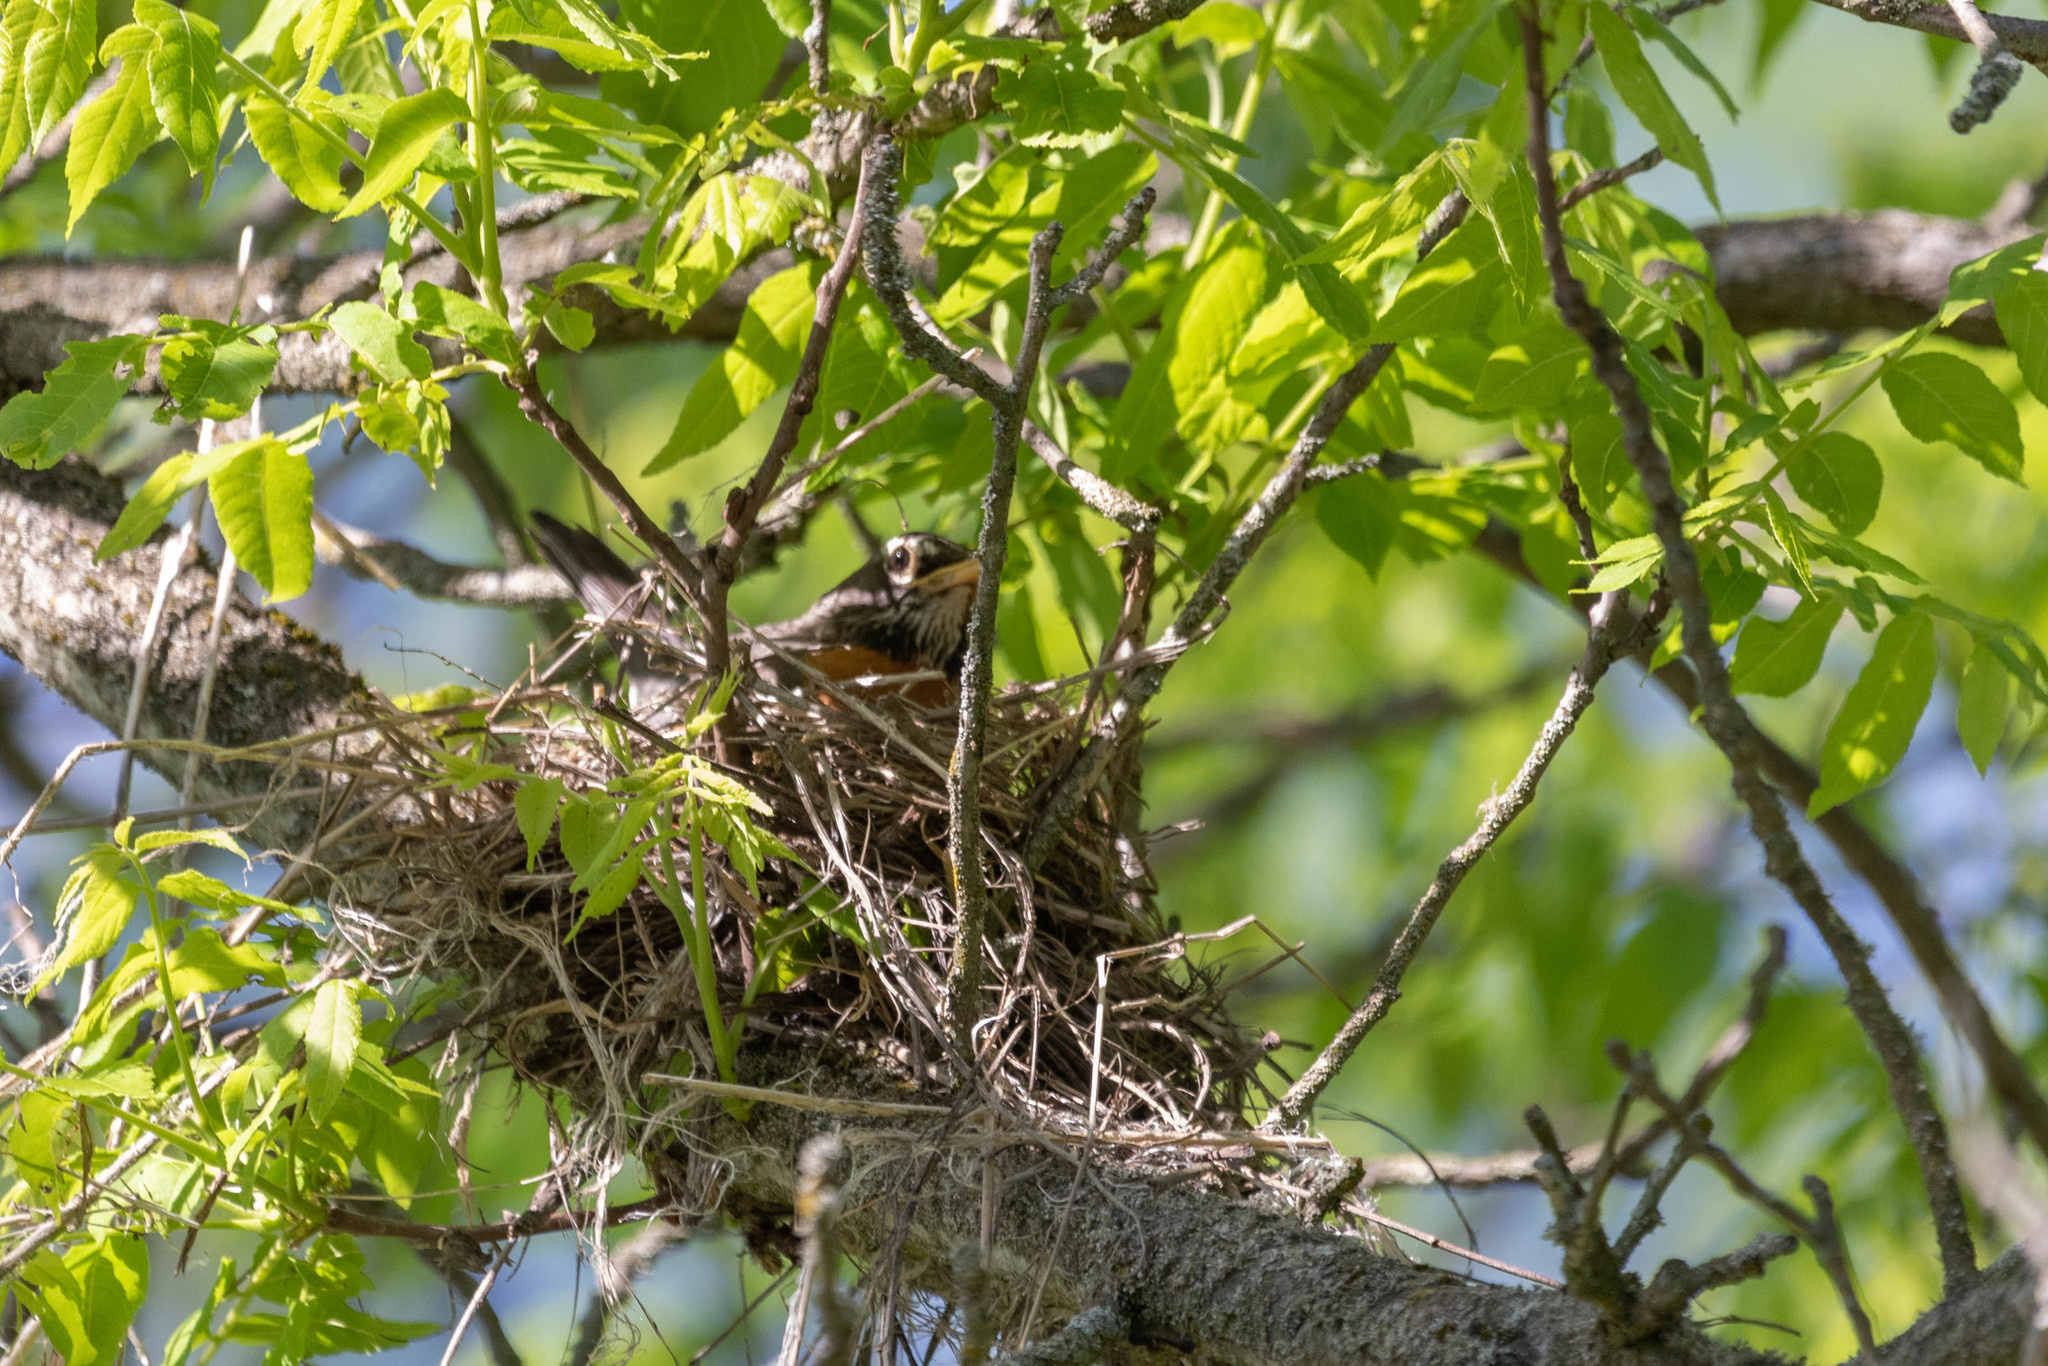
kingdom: Animalia
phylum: Chordata
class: Aves
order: Passeriformes
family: Turdidae
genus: Turdus
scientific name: Turdus migratorius
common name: American robin
